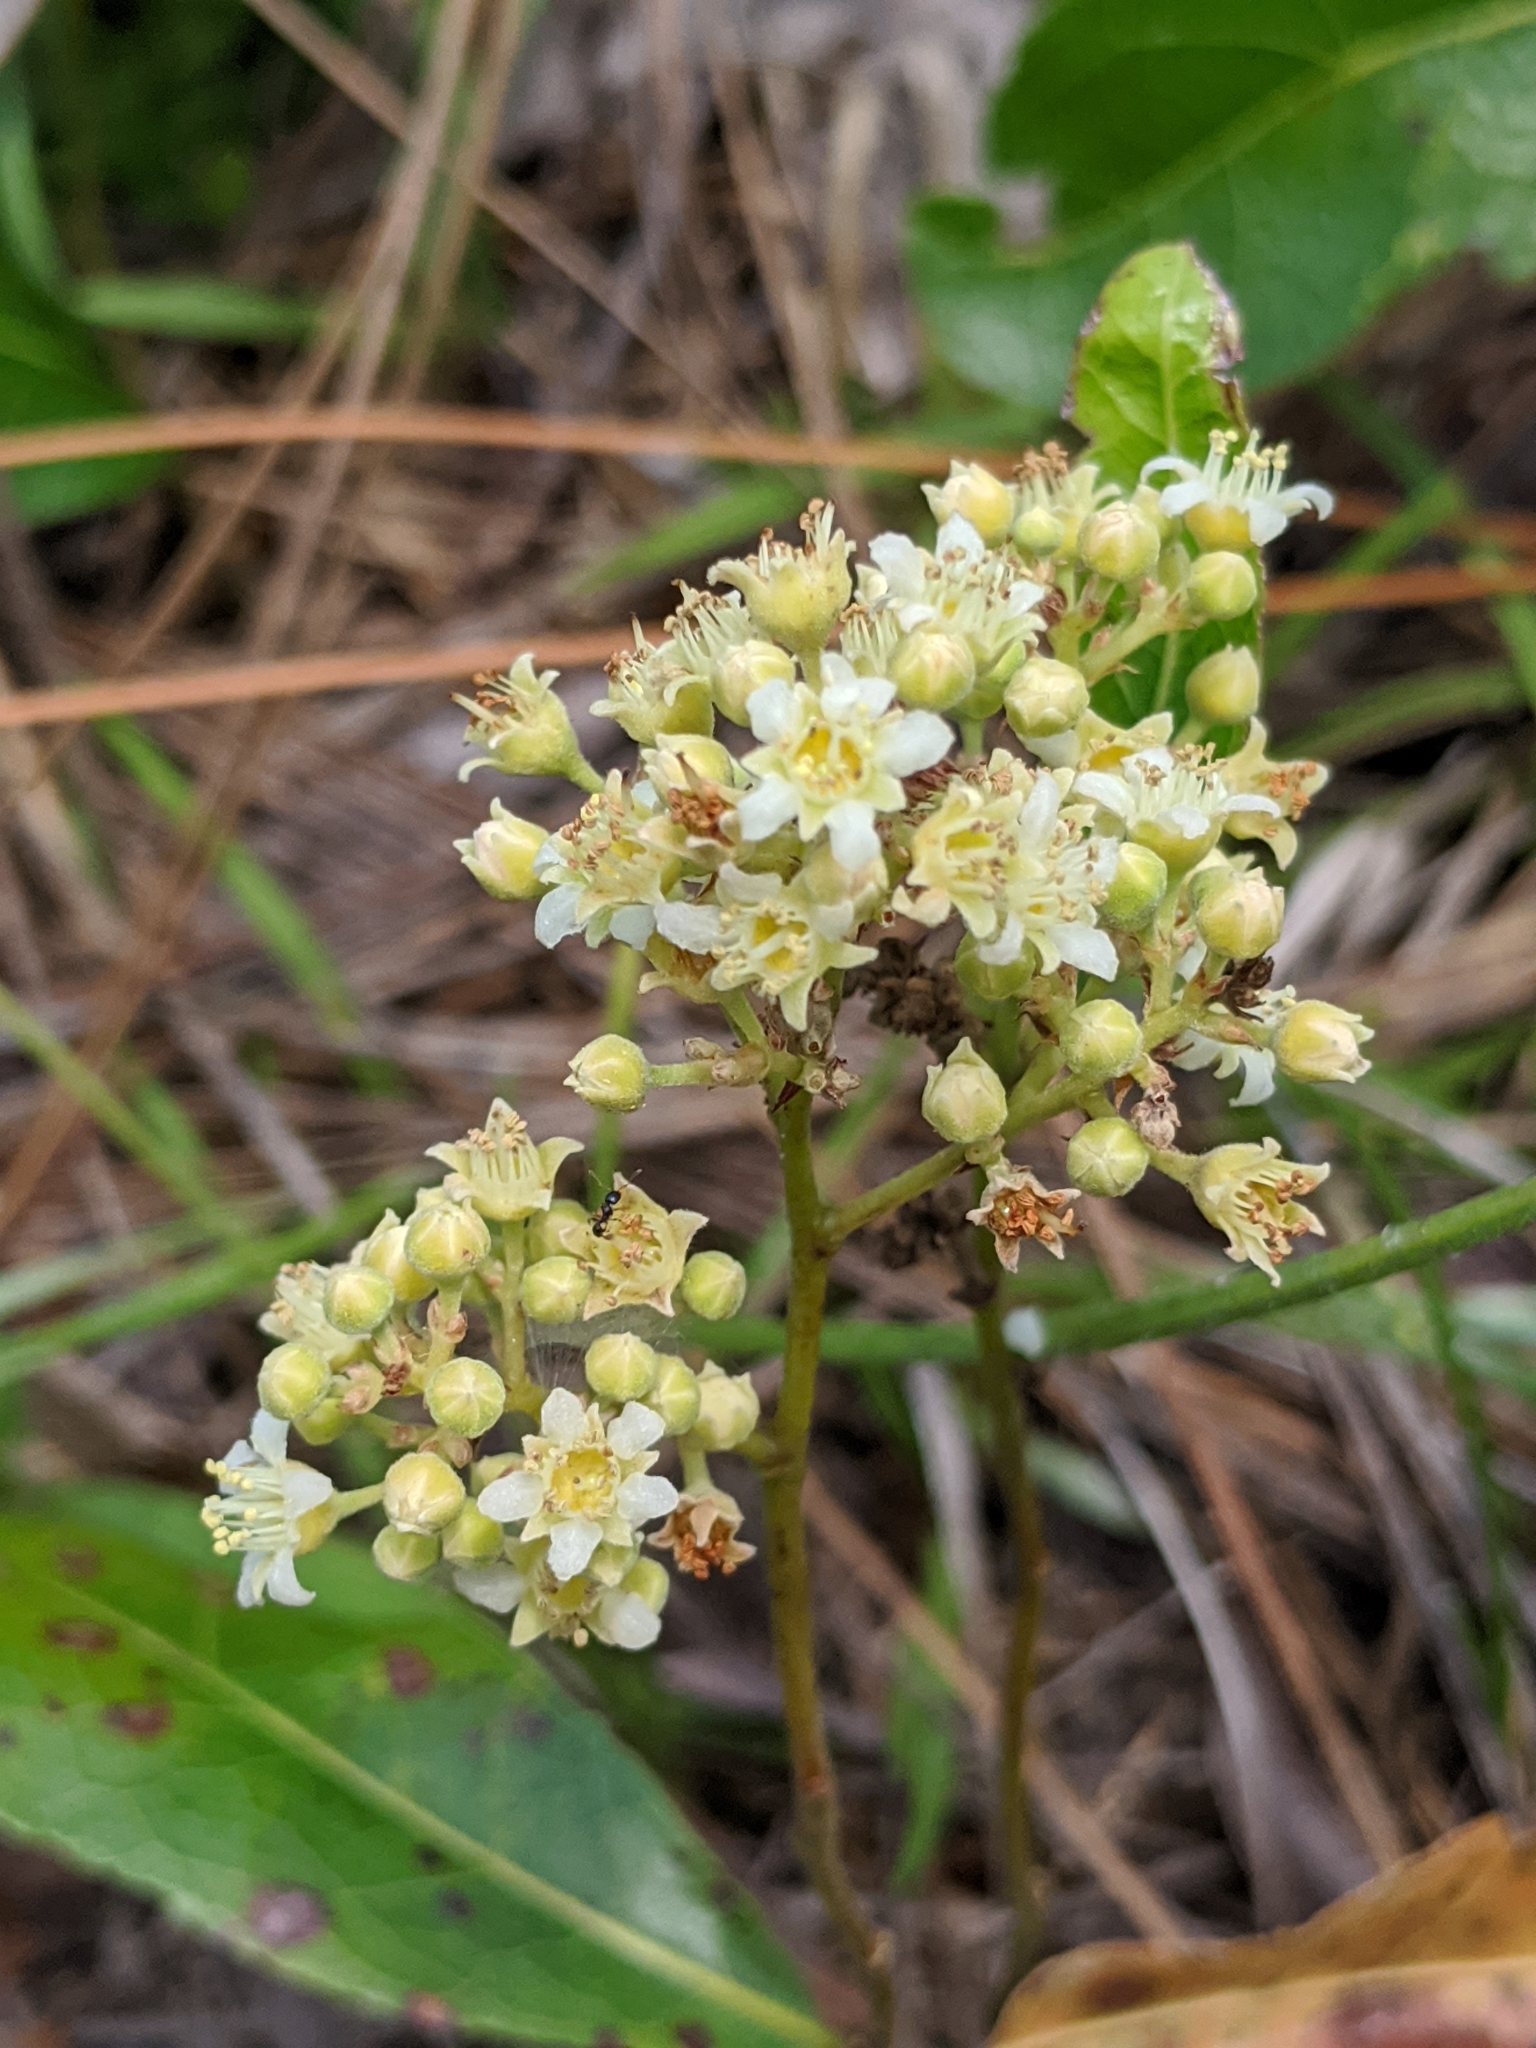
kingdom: Plantae
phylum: Tracheophyta
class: Magnoliopsida
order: Malpighiales
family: Chrysobalanaceae
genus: Geobalanus
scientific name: Geobalanus oblongifolius
